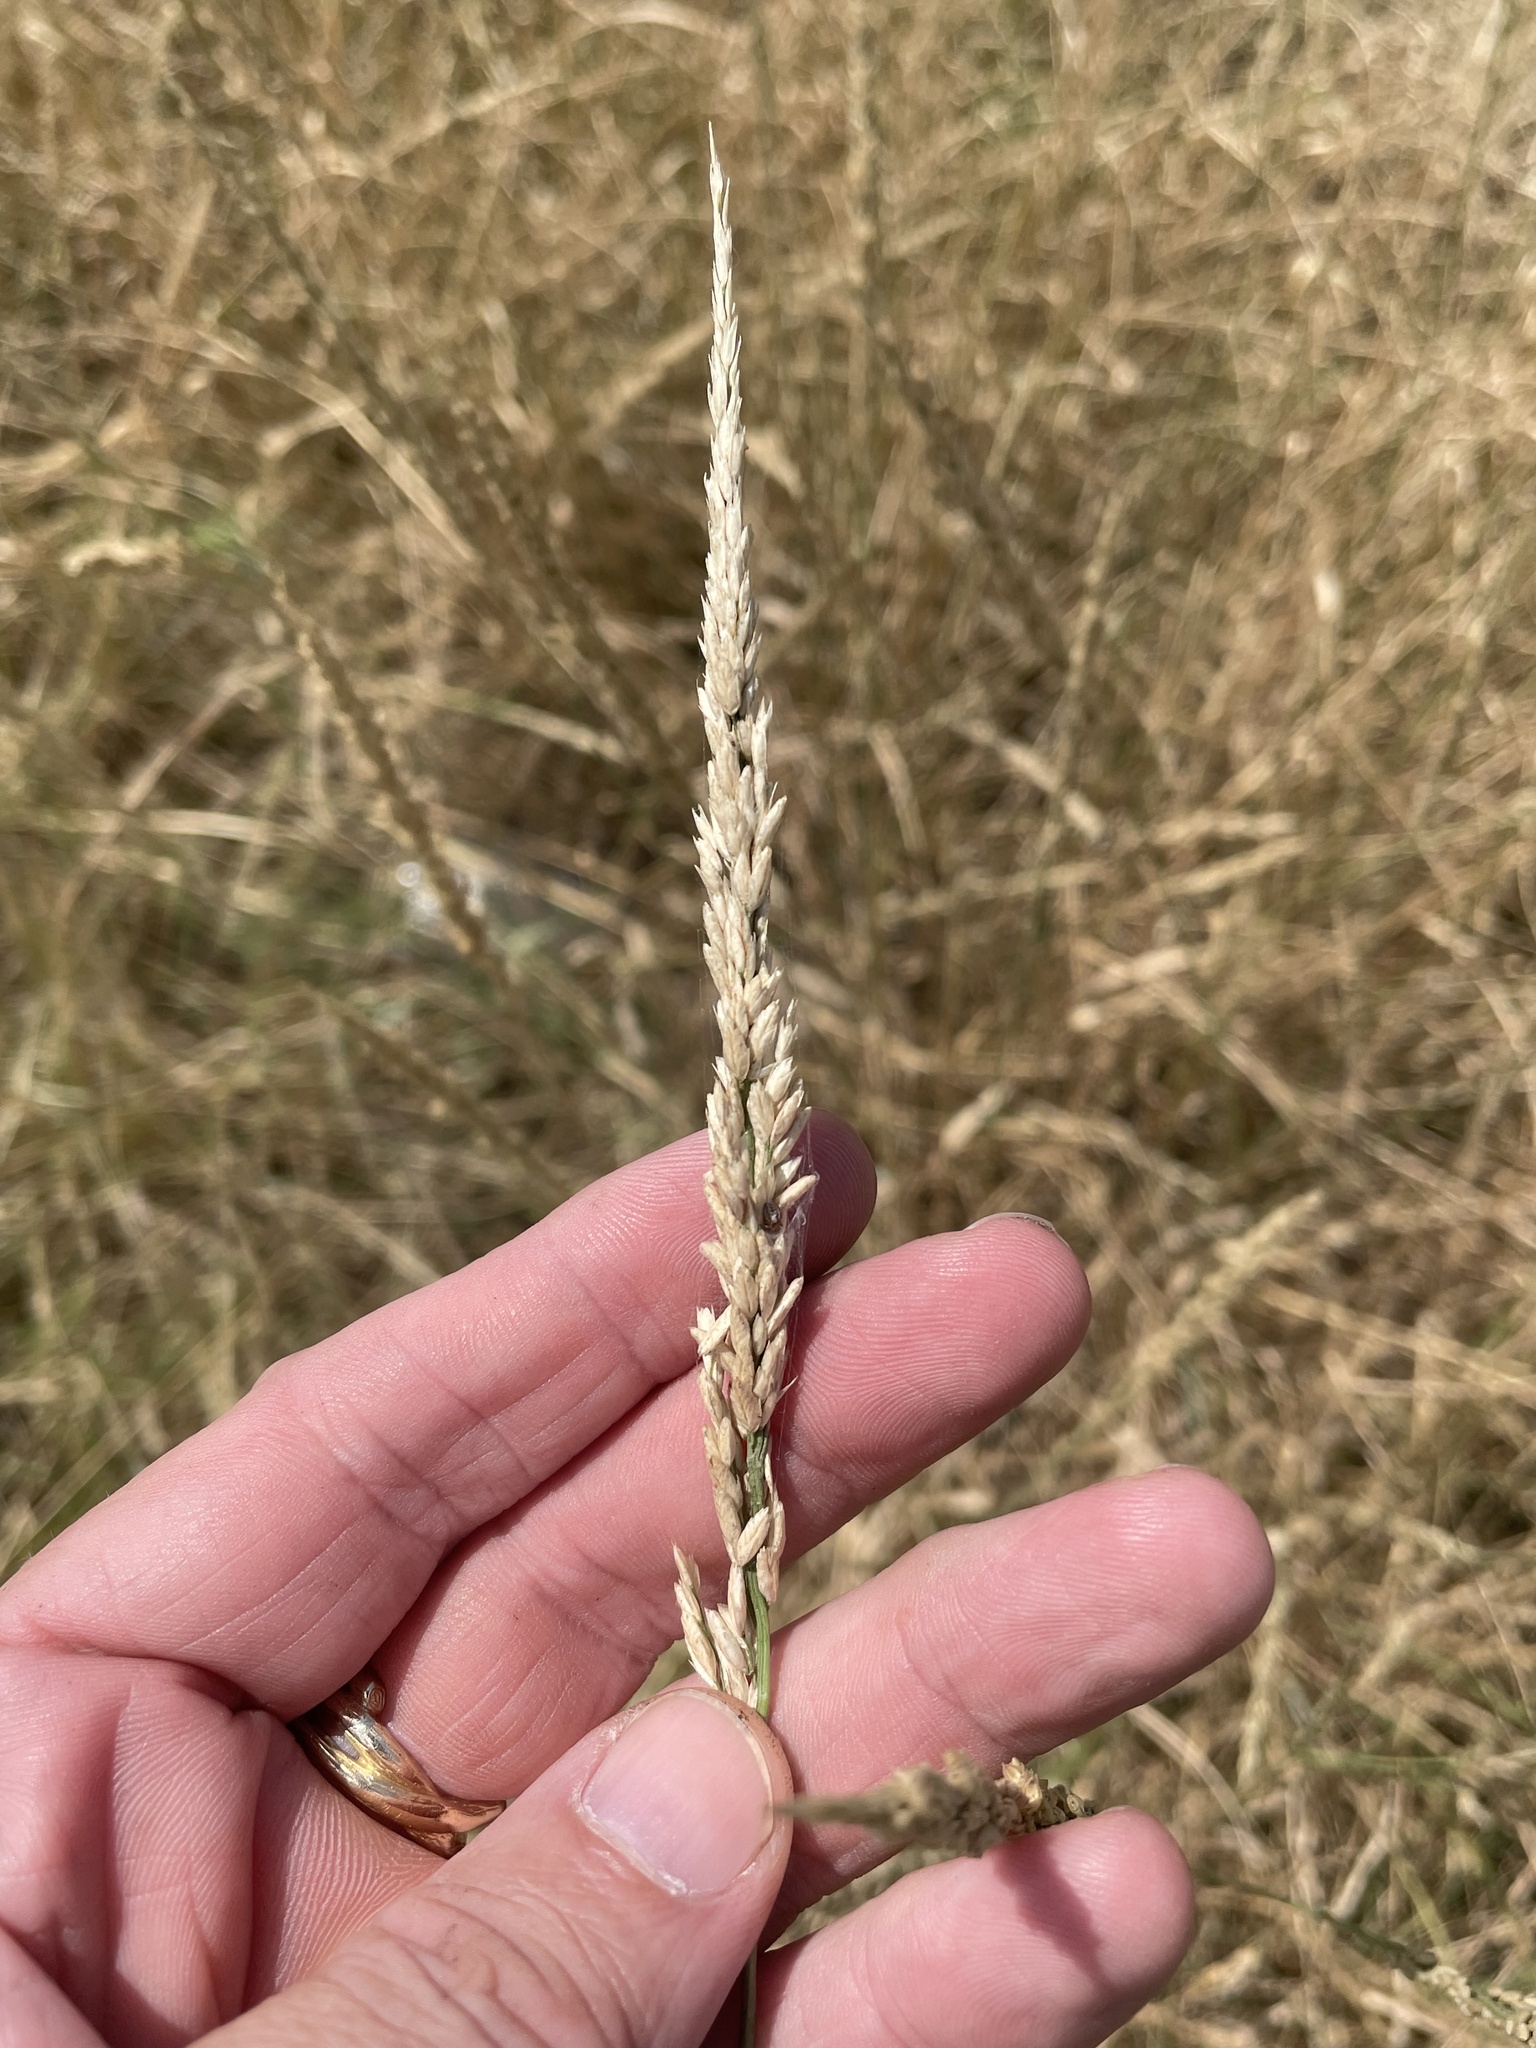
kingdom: Plantae
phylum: Tracheophyta
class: Liliopsida
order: Poales
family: Poaceae
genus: Tridens
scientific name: Tridens albescens
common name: White tridens
